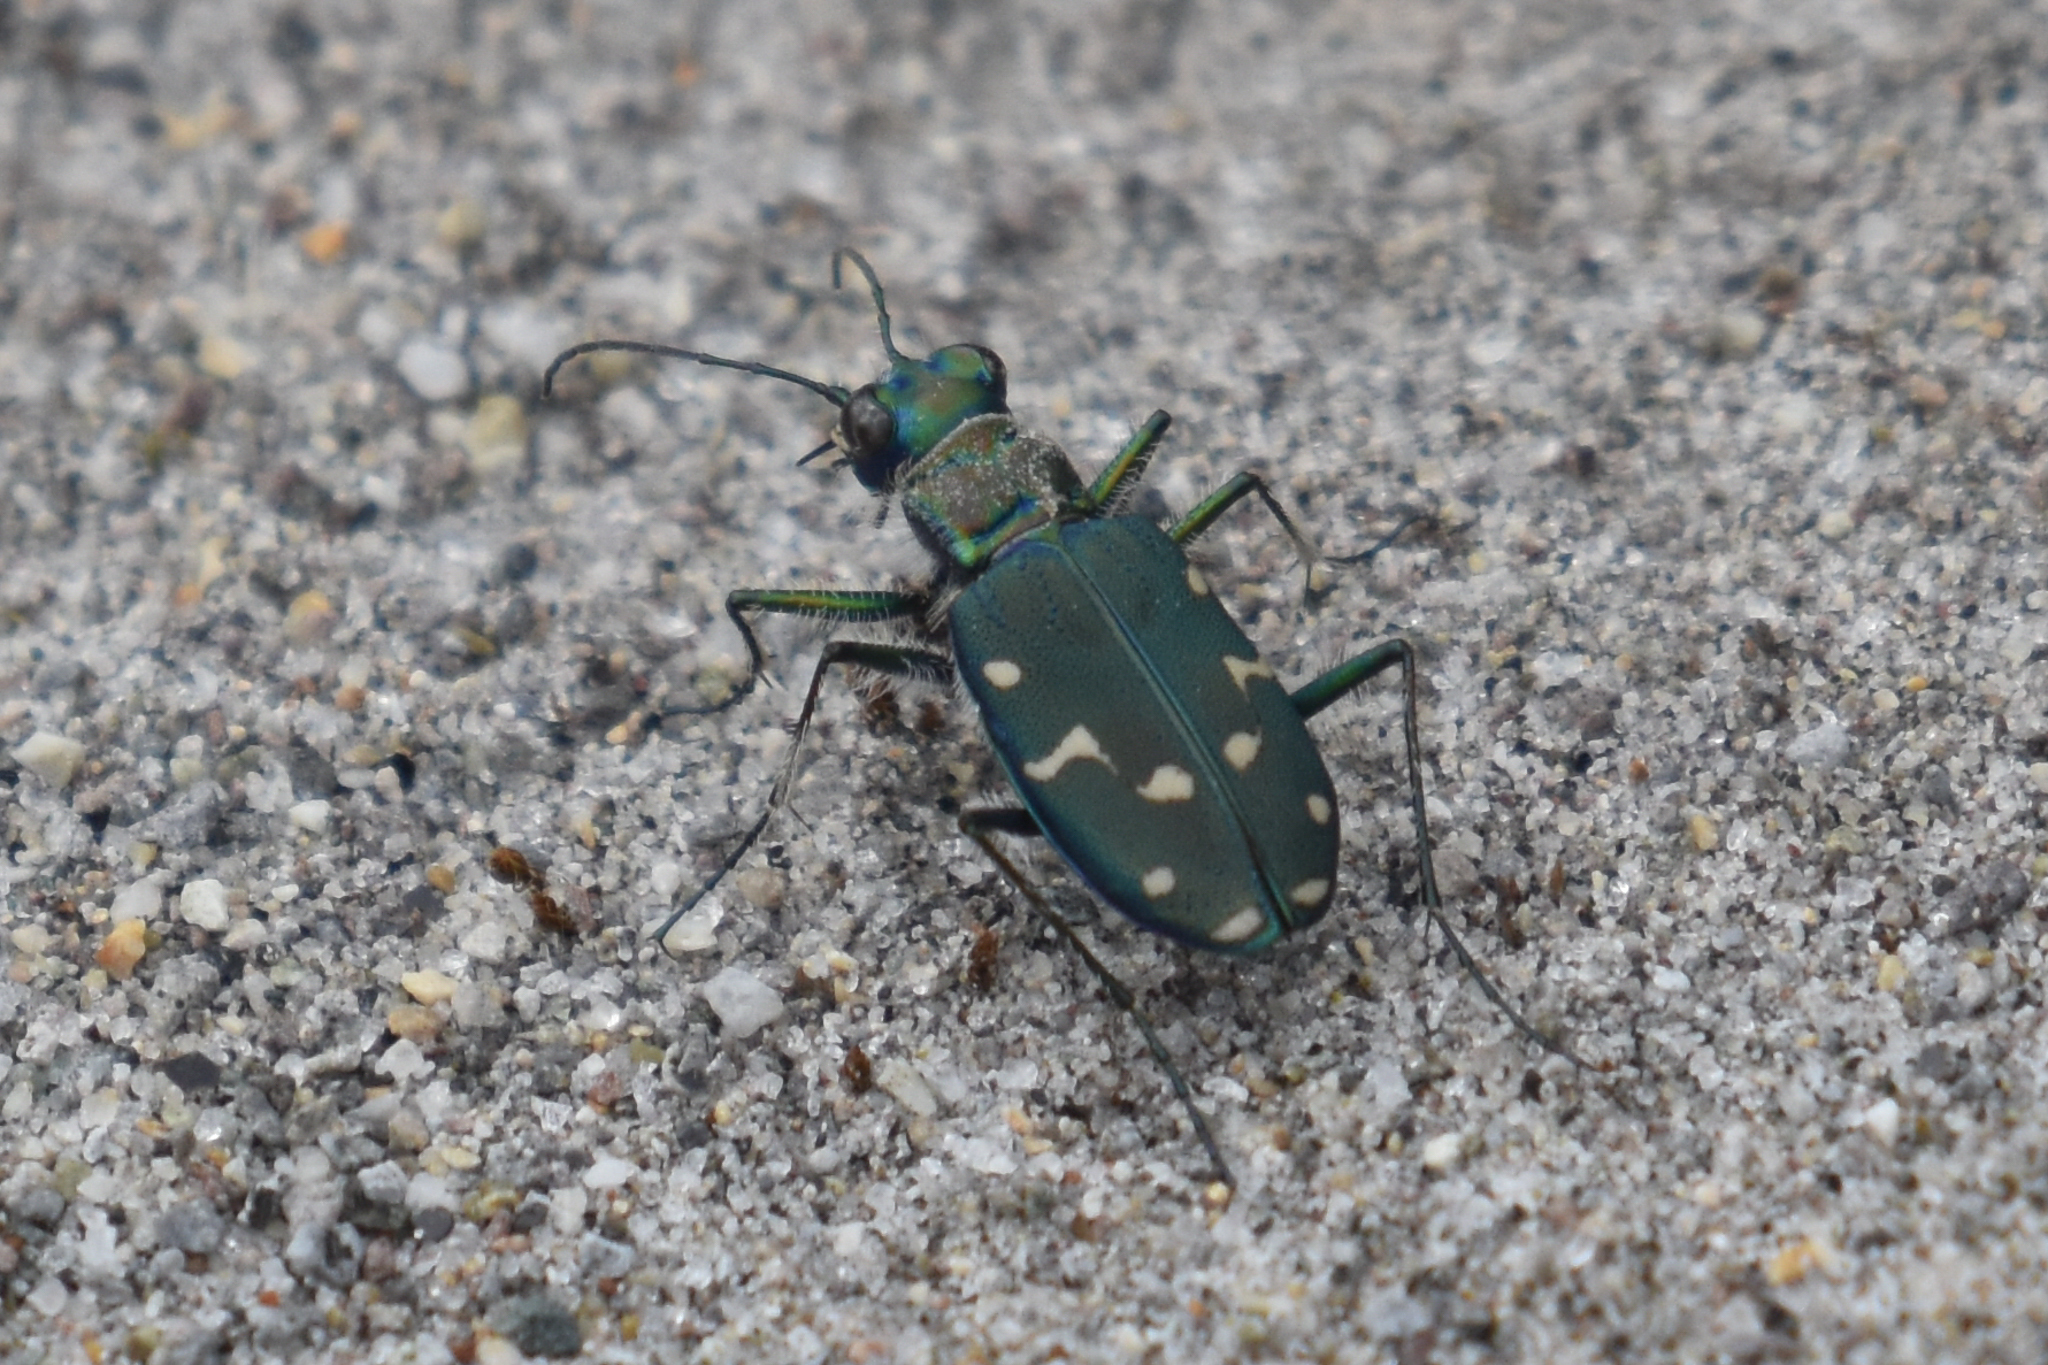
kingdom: Animalia
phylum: Arthropoda
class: Insecta
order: Coleoptera
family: Carabidae
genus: Cicindela
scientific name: Cicindela oregona
